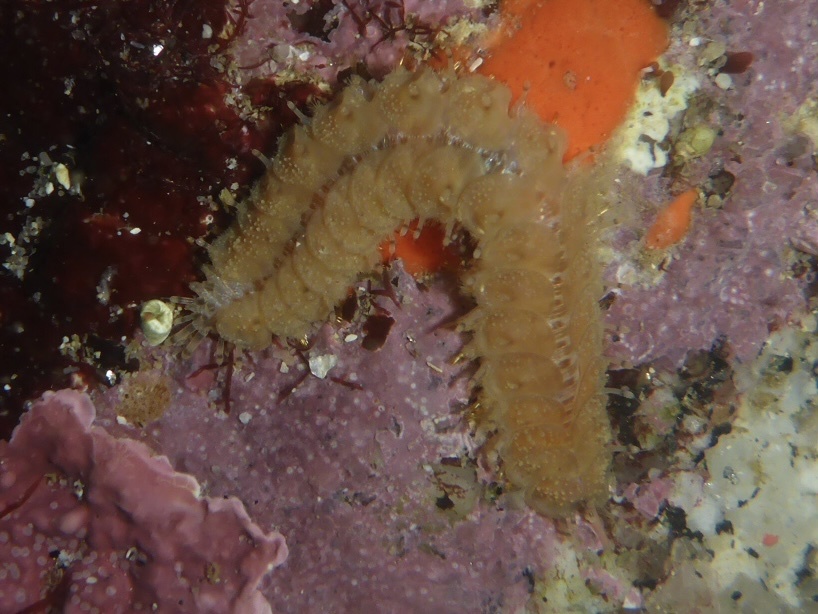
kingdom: Animalia
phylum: Annelida
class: Polychaeta
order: Phyllodocida
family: Polynoidae
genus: Halosydna
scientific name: Halosydna brevisetosa
